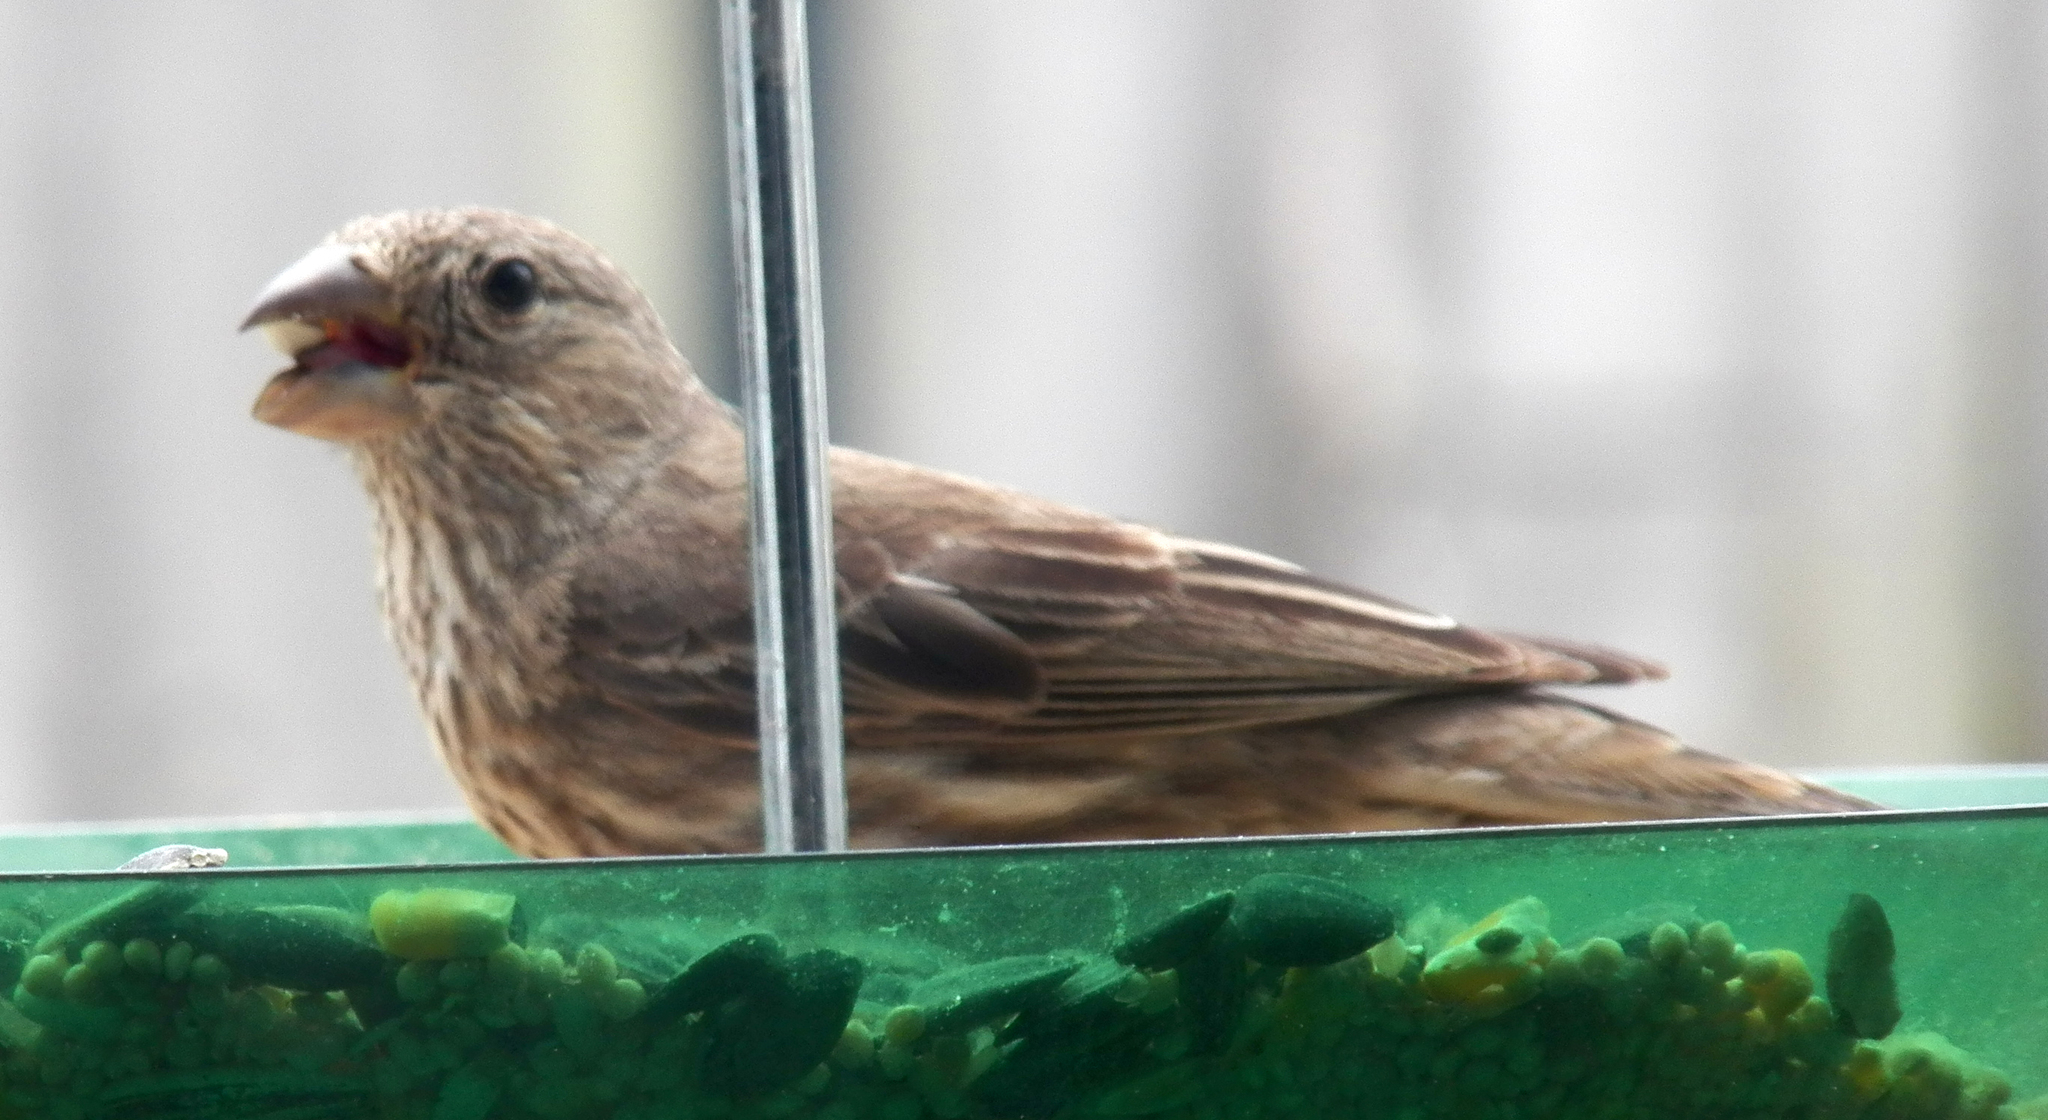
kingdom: Animalia
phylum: Chordata
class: Aves
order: Passeriformes
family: Fringillidae
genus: Haemorhous
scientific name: Haemorhous mexicanus
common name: House finch
